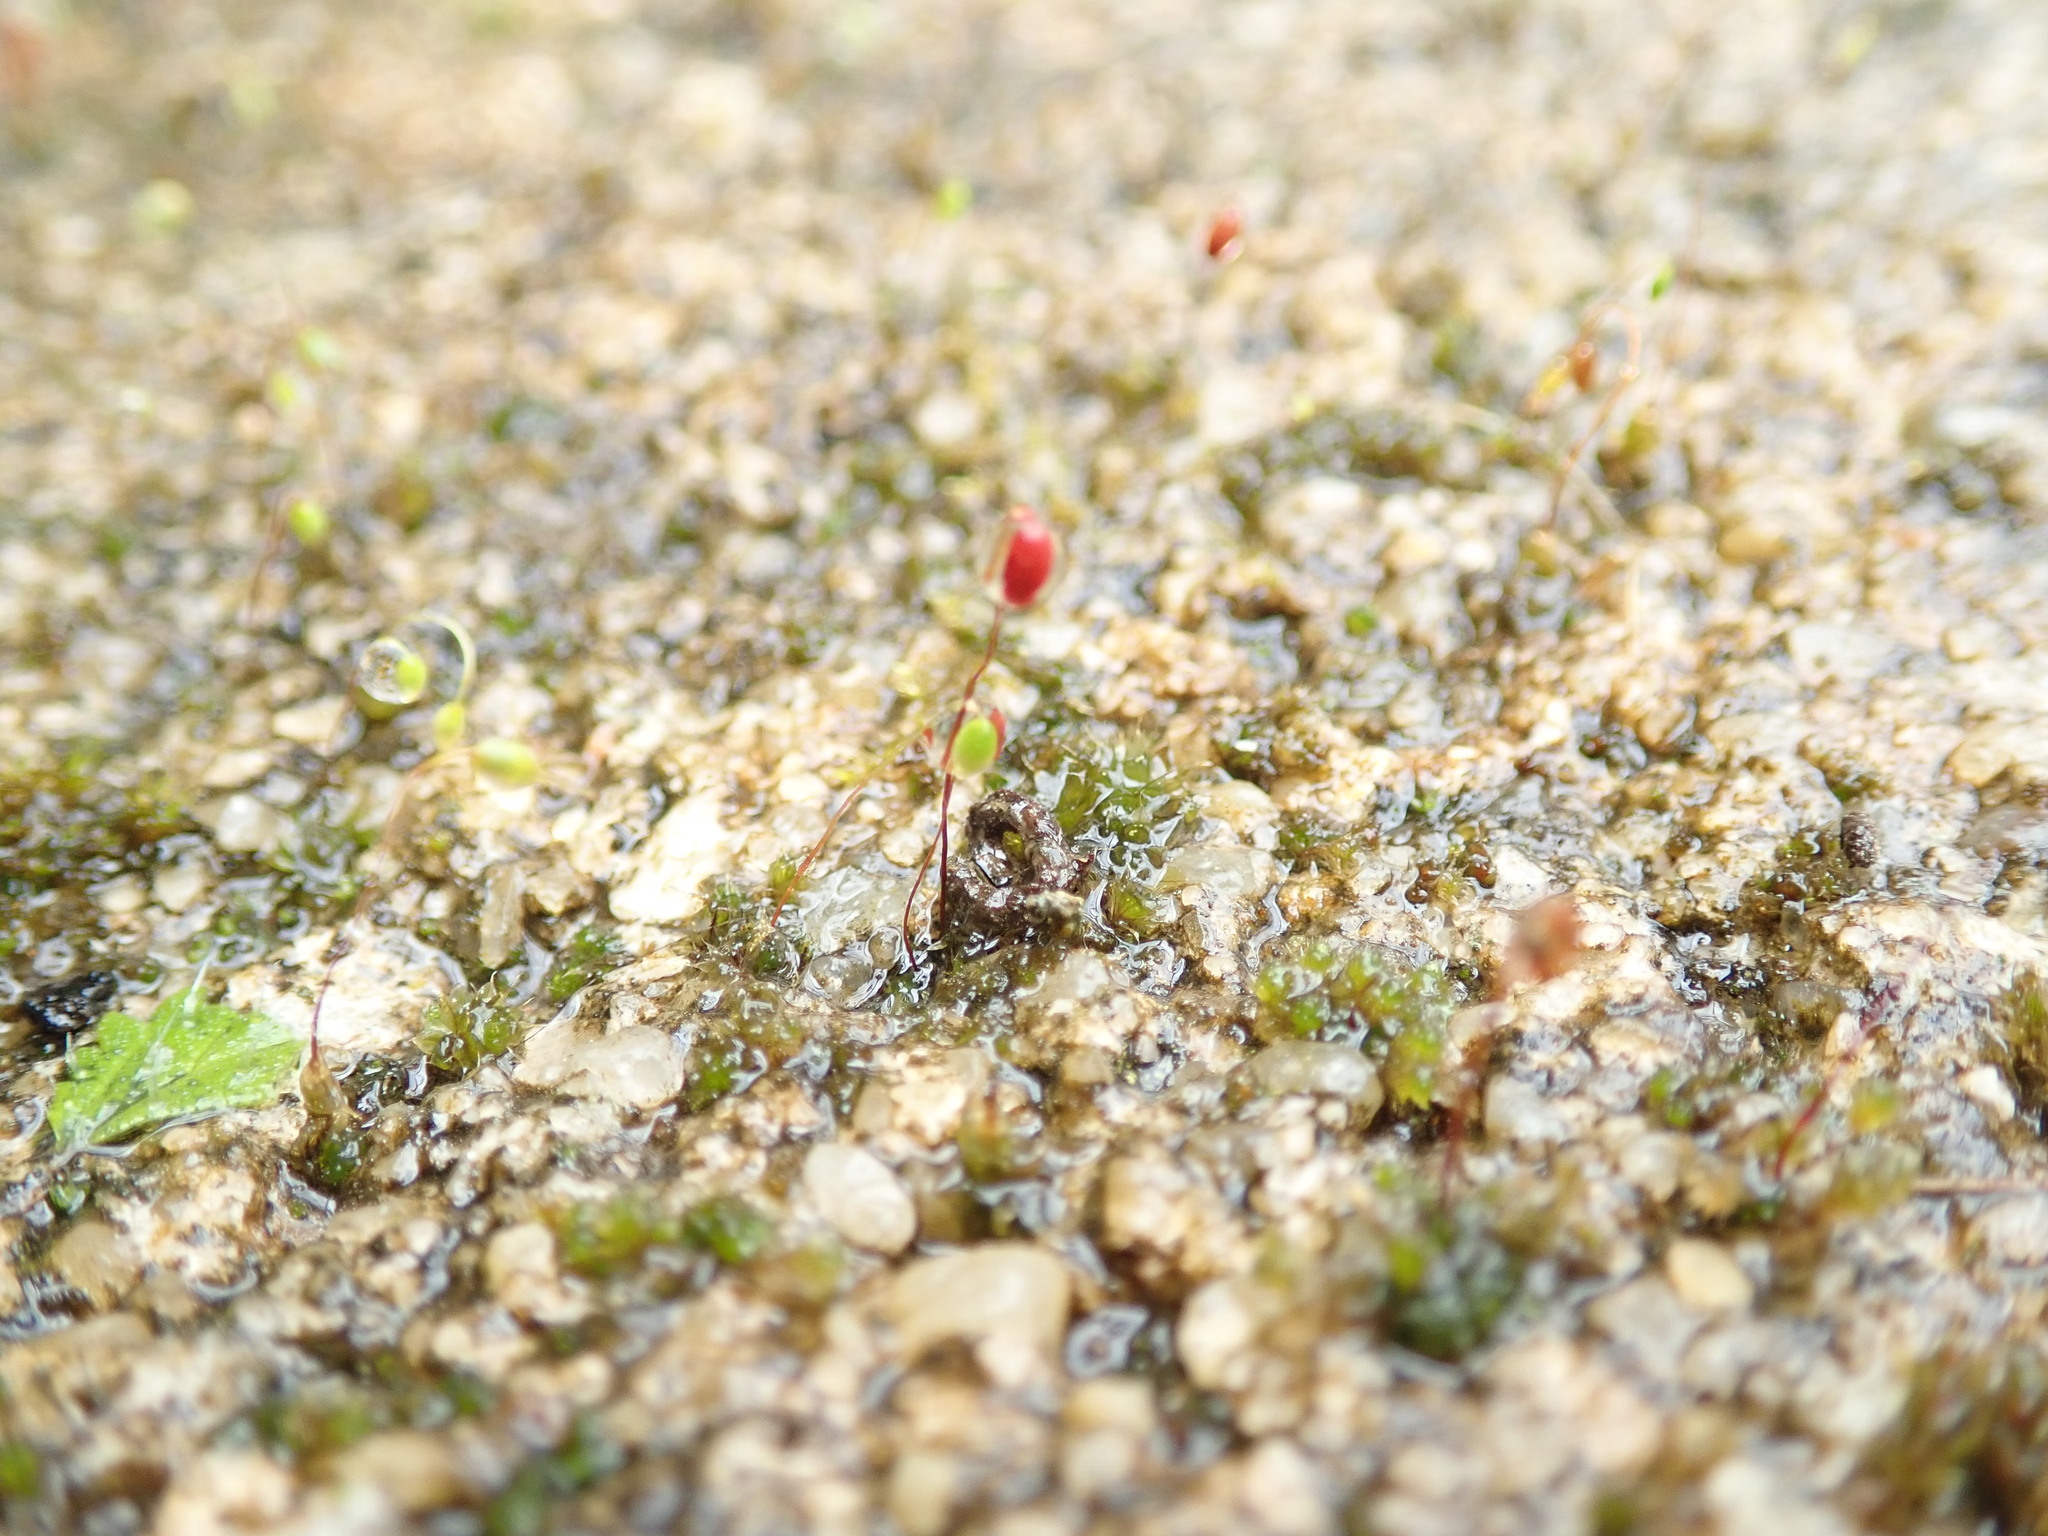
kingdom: Plantae
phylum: Bryophyta
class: Bryopsida
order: Bryales
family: Bryaceae
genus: Bryum
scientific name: Bryum
